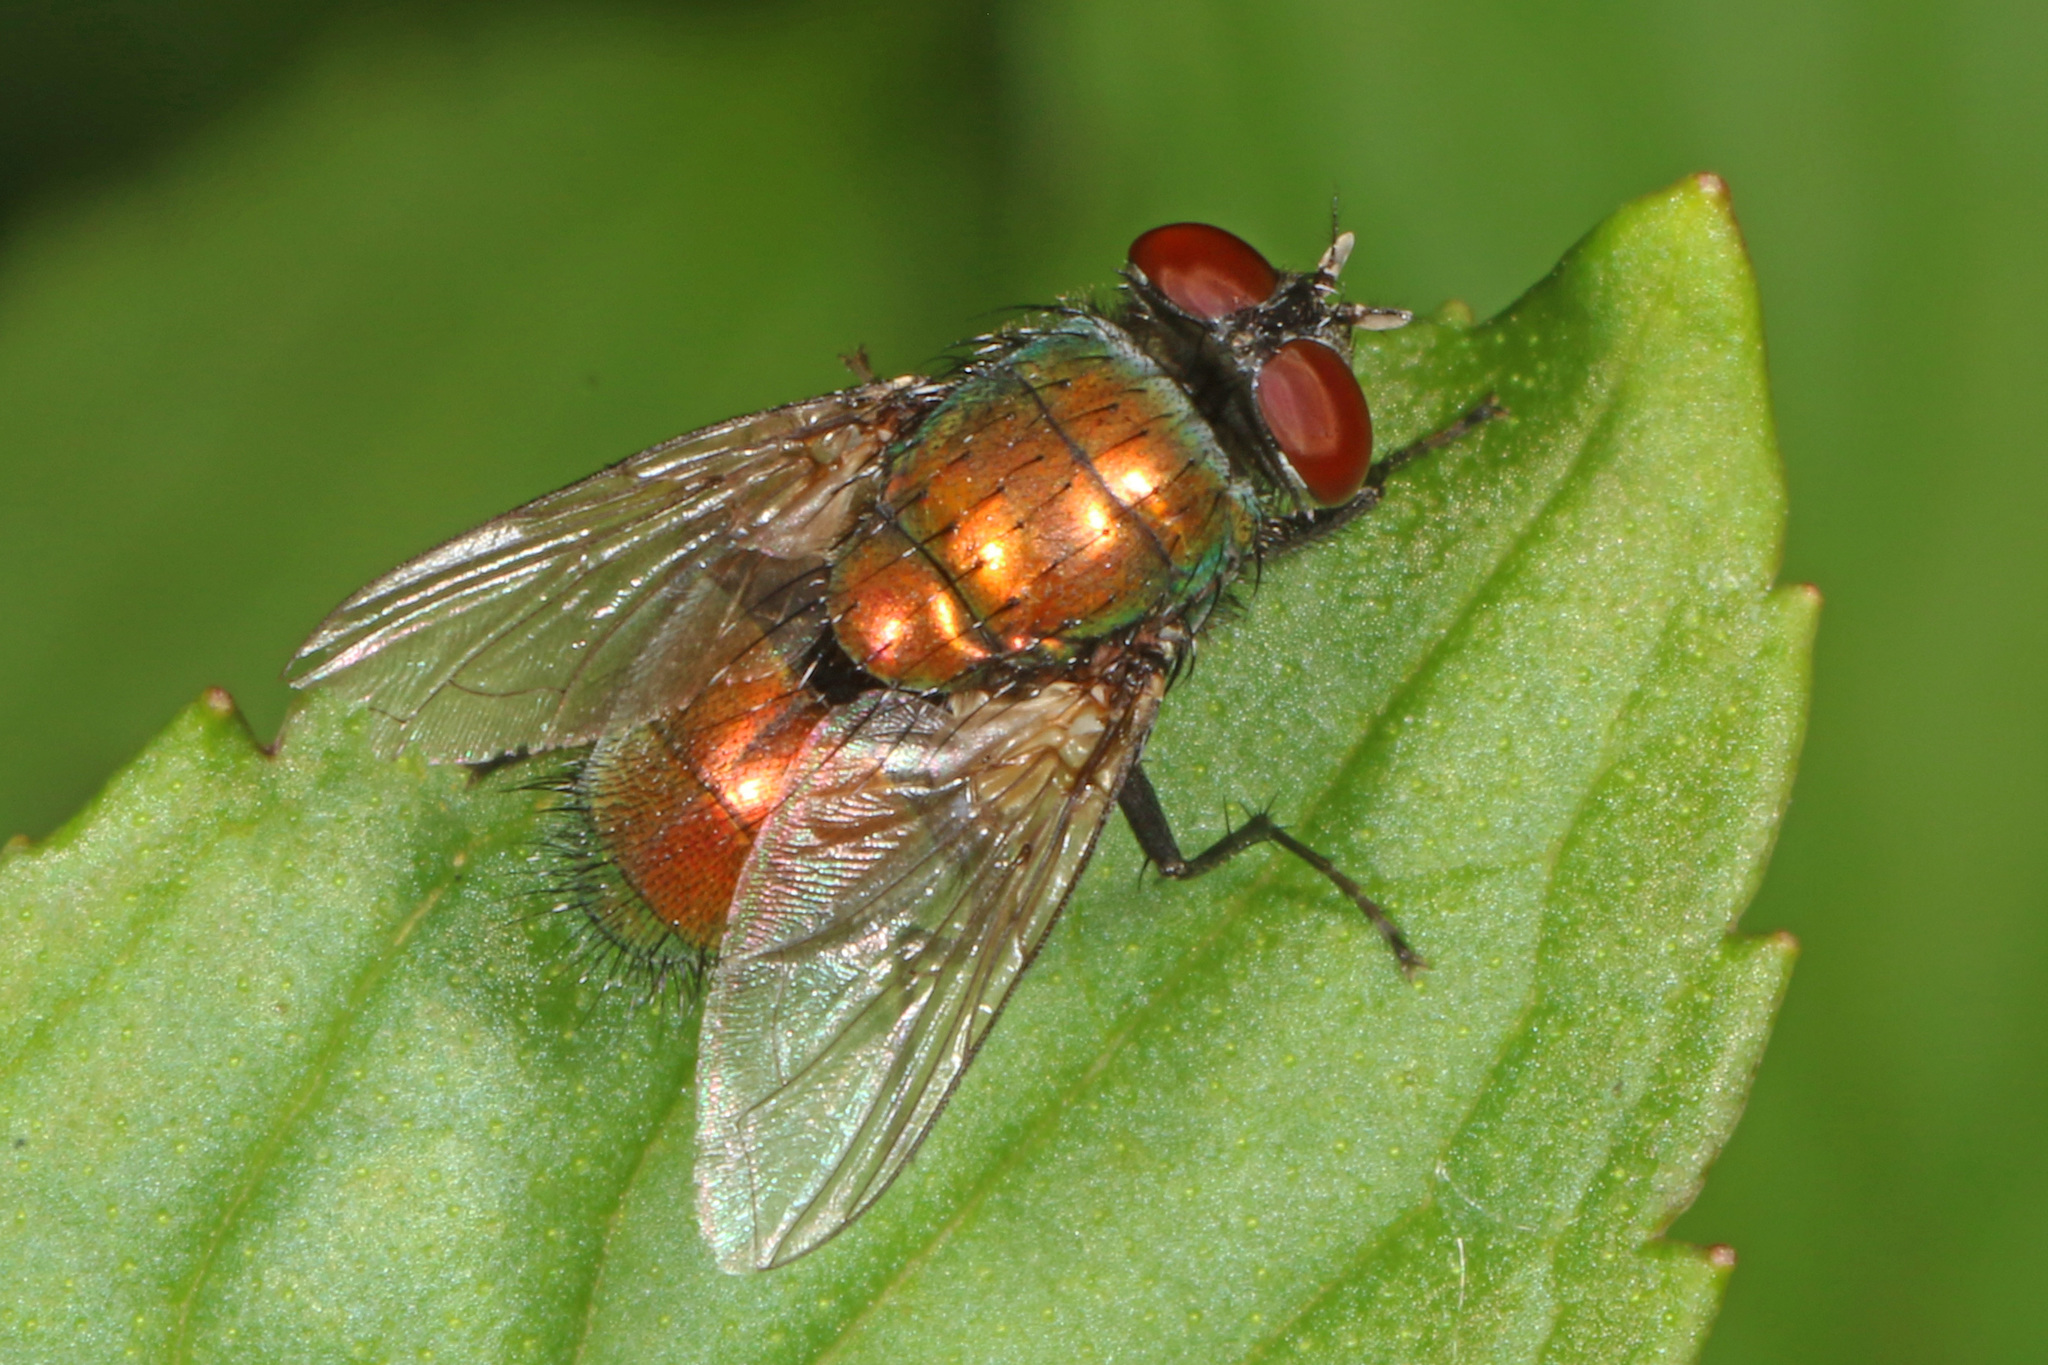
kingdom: Animalia
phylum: Arthropoda
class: Insecta
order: Diptera
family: Calliphoridae
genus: Lucilia
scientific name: Lucilia sericata
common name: Blow fly
